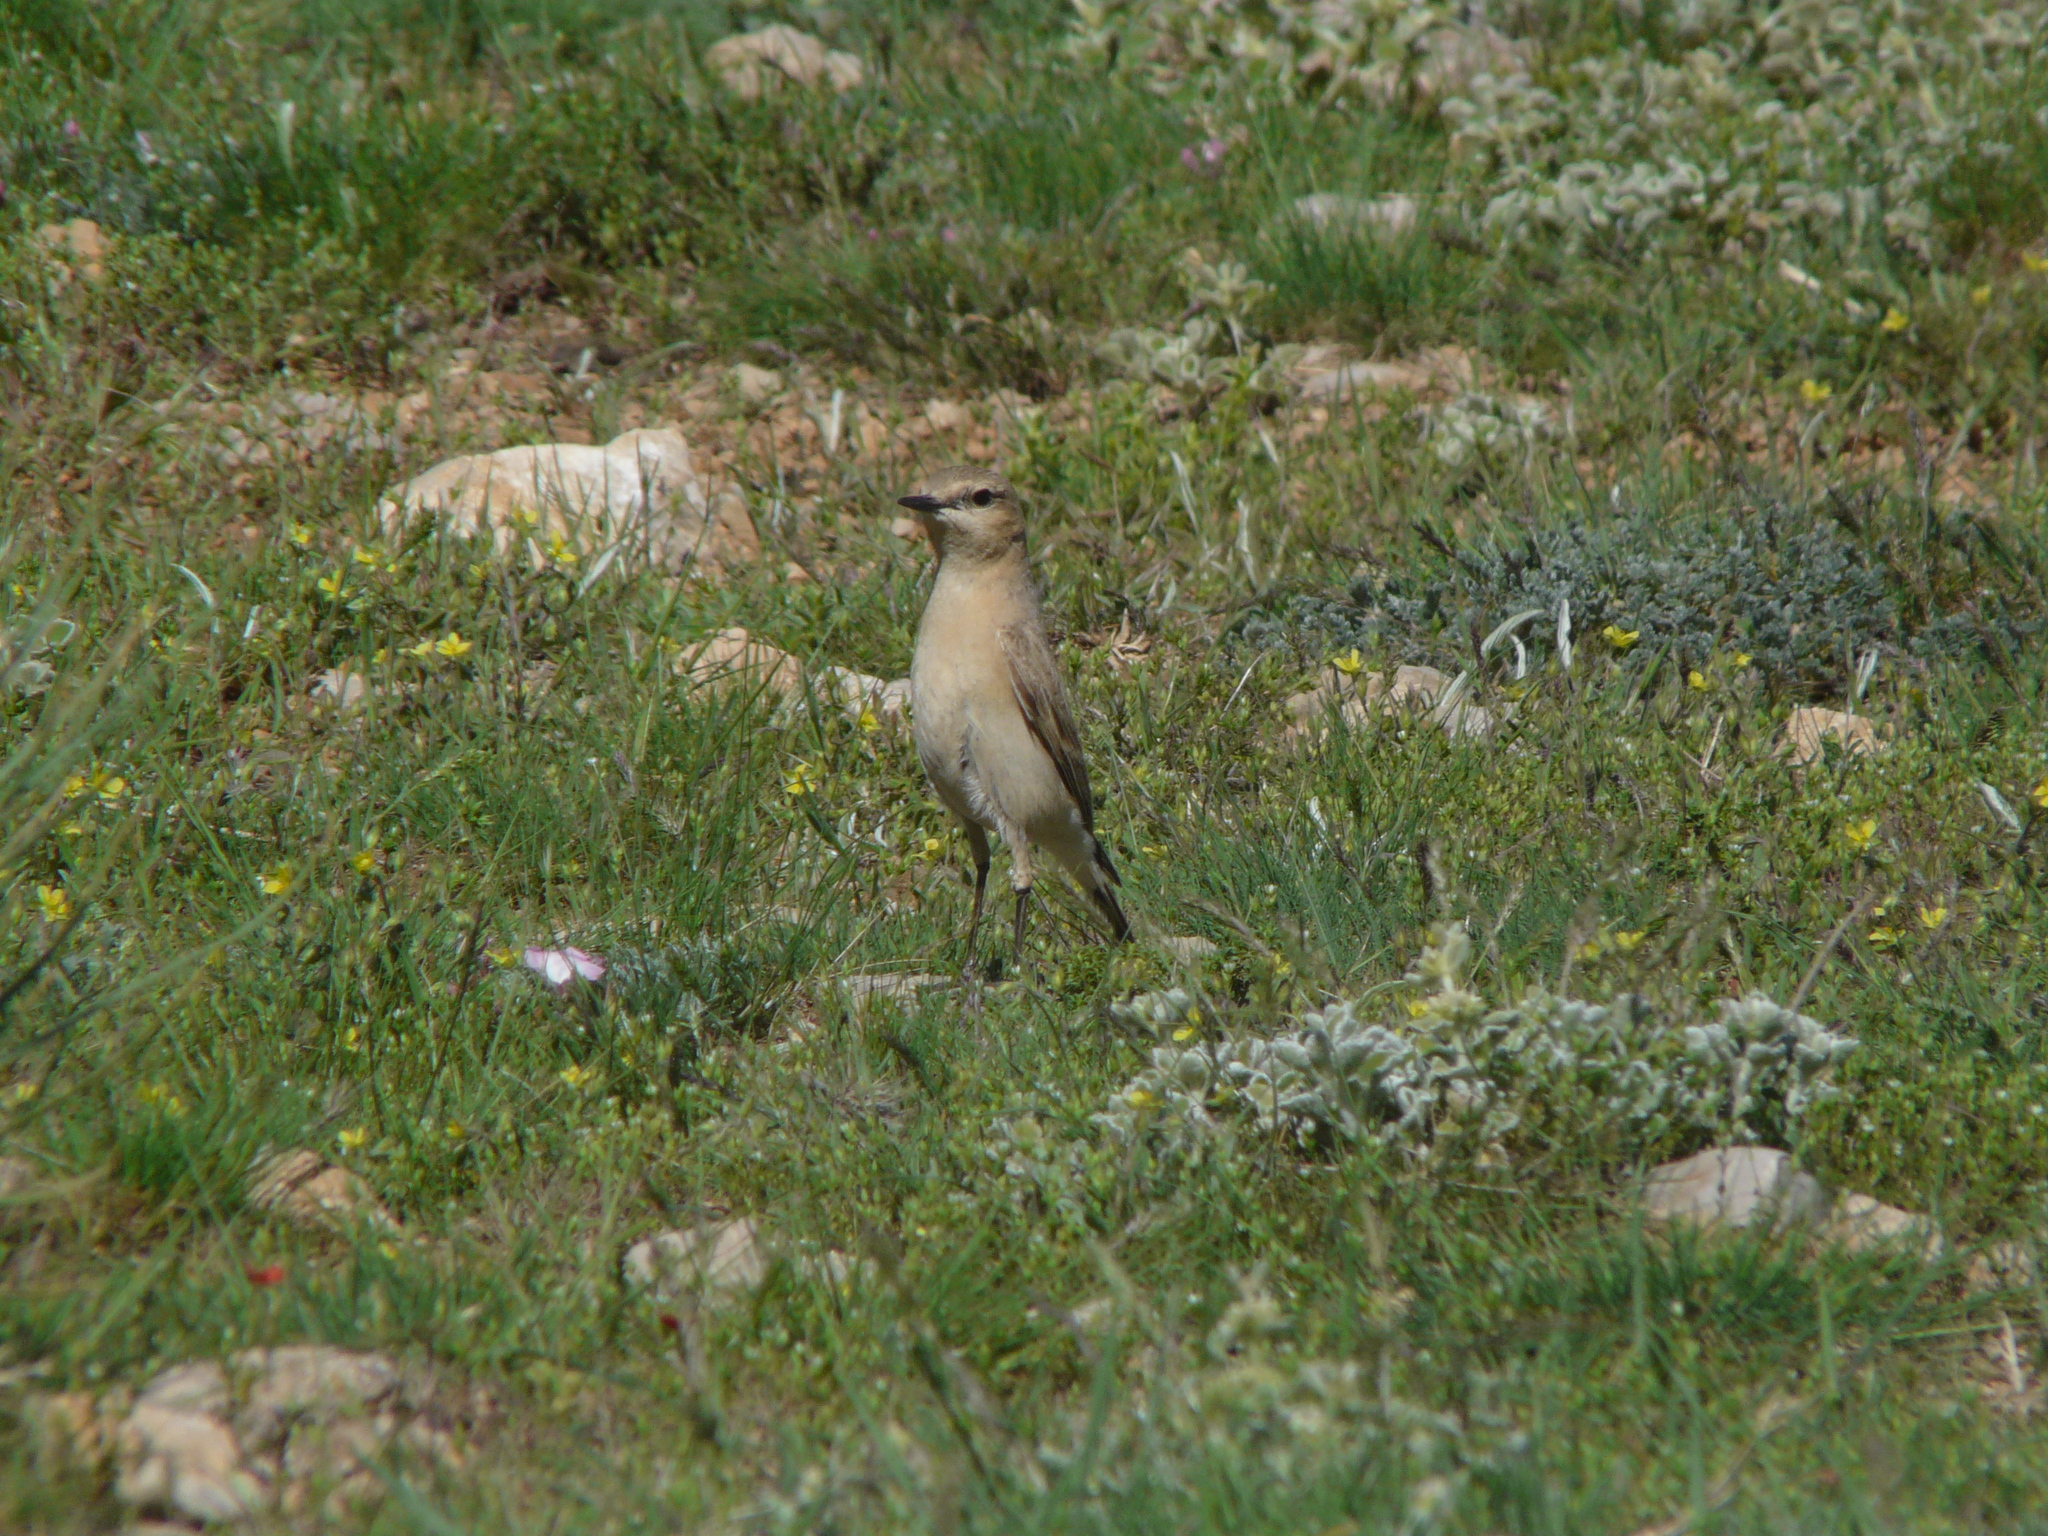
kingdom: Animalia
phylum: Chordata
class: Aves
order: Passeriformes
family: Muscicapidae
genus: Oenanthe
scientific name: Oenanthe isabellina
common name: Isabelline wheatear
